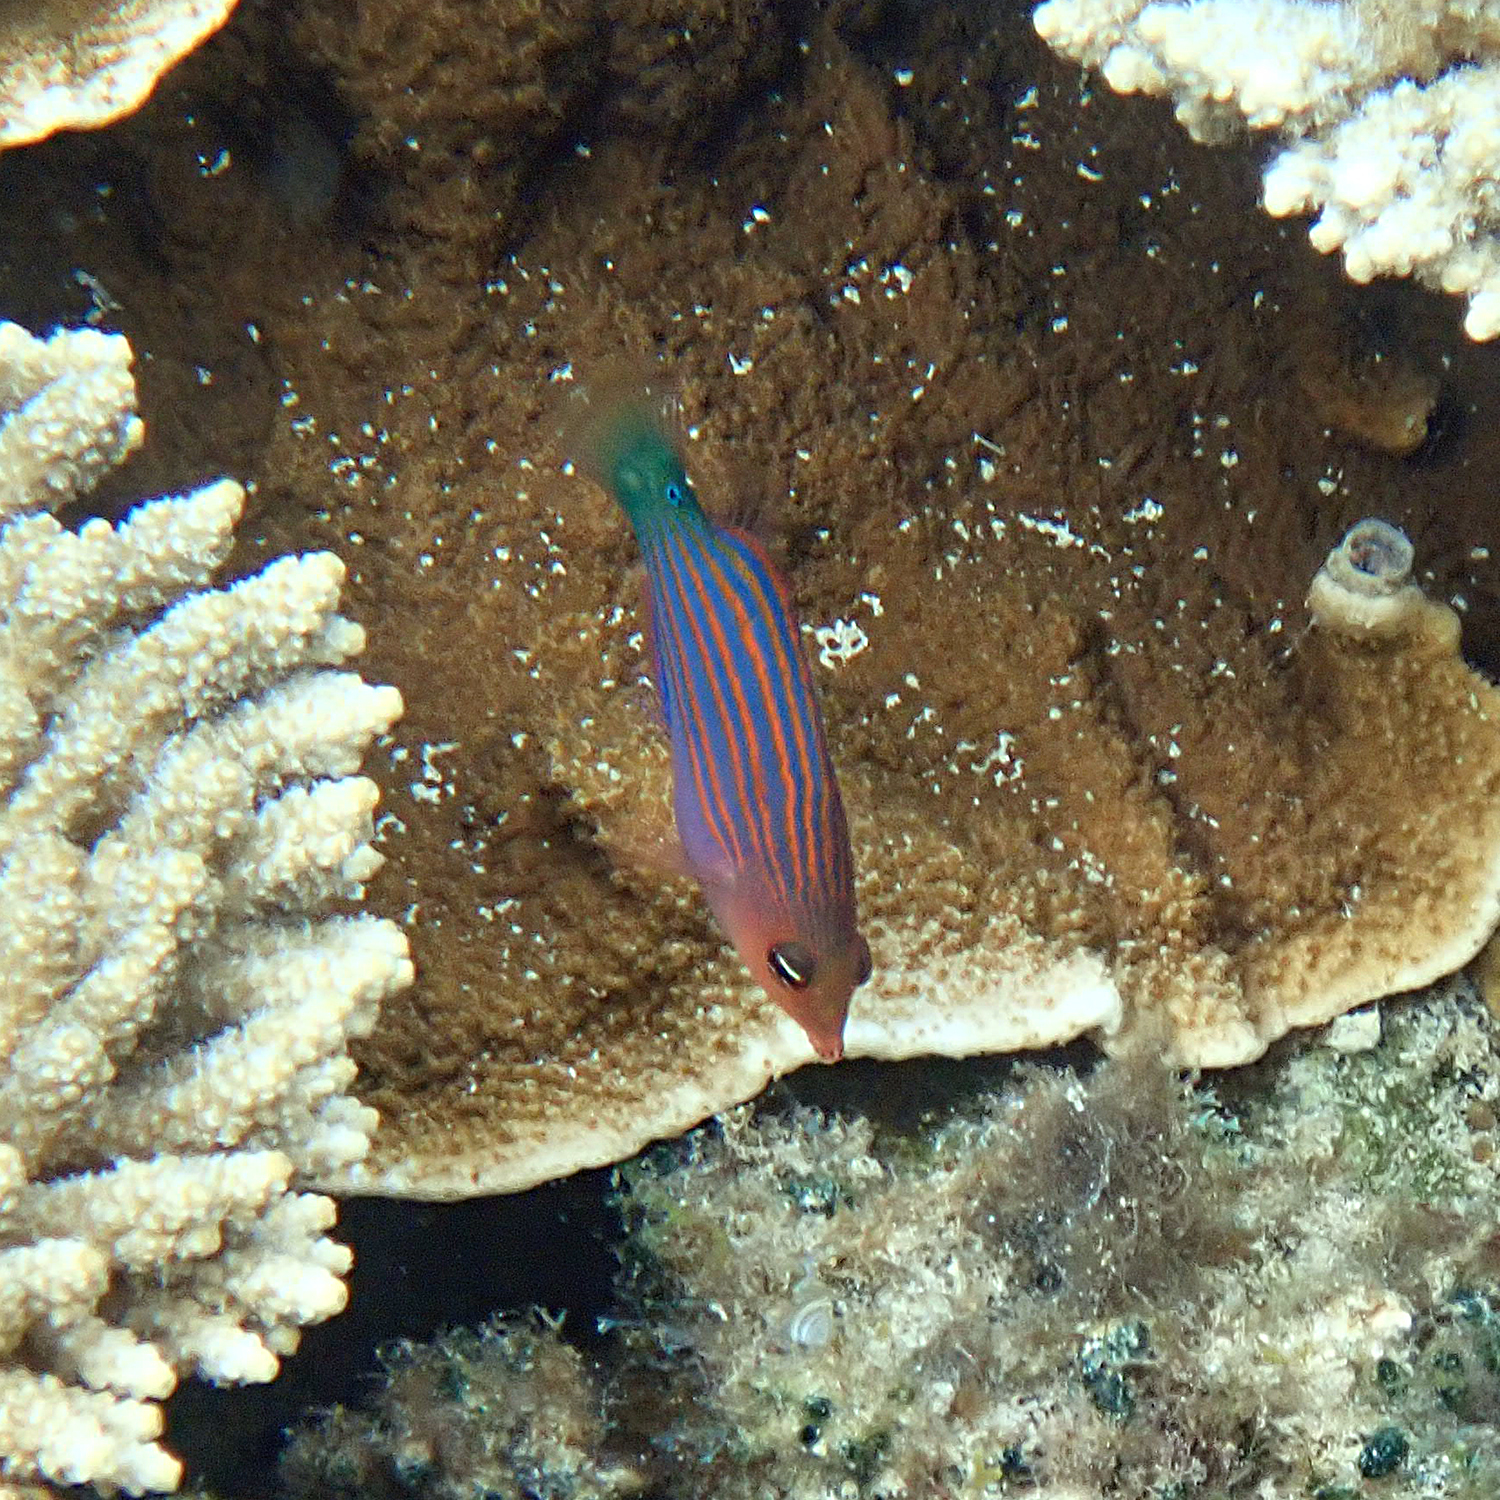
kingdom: Animalia
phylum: Chordata
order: Perciformes
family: Labridae
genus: Pseudocheilinus
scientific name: Pseudocheilinus hexataenia
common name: Sixline wrasse
